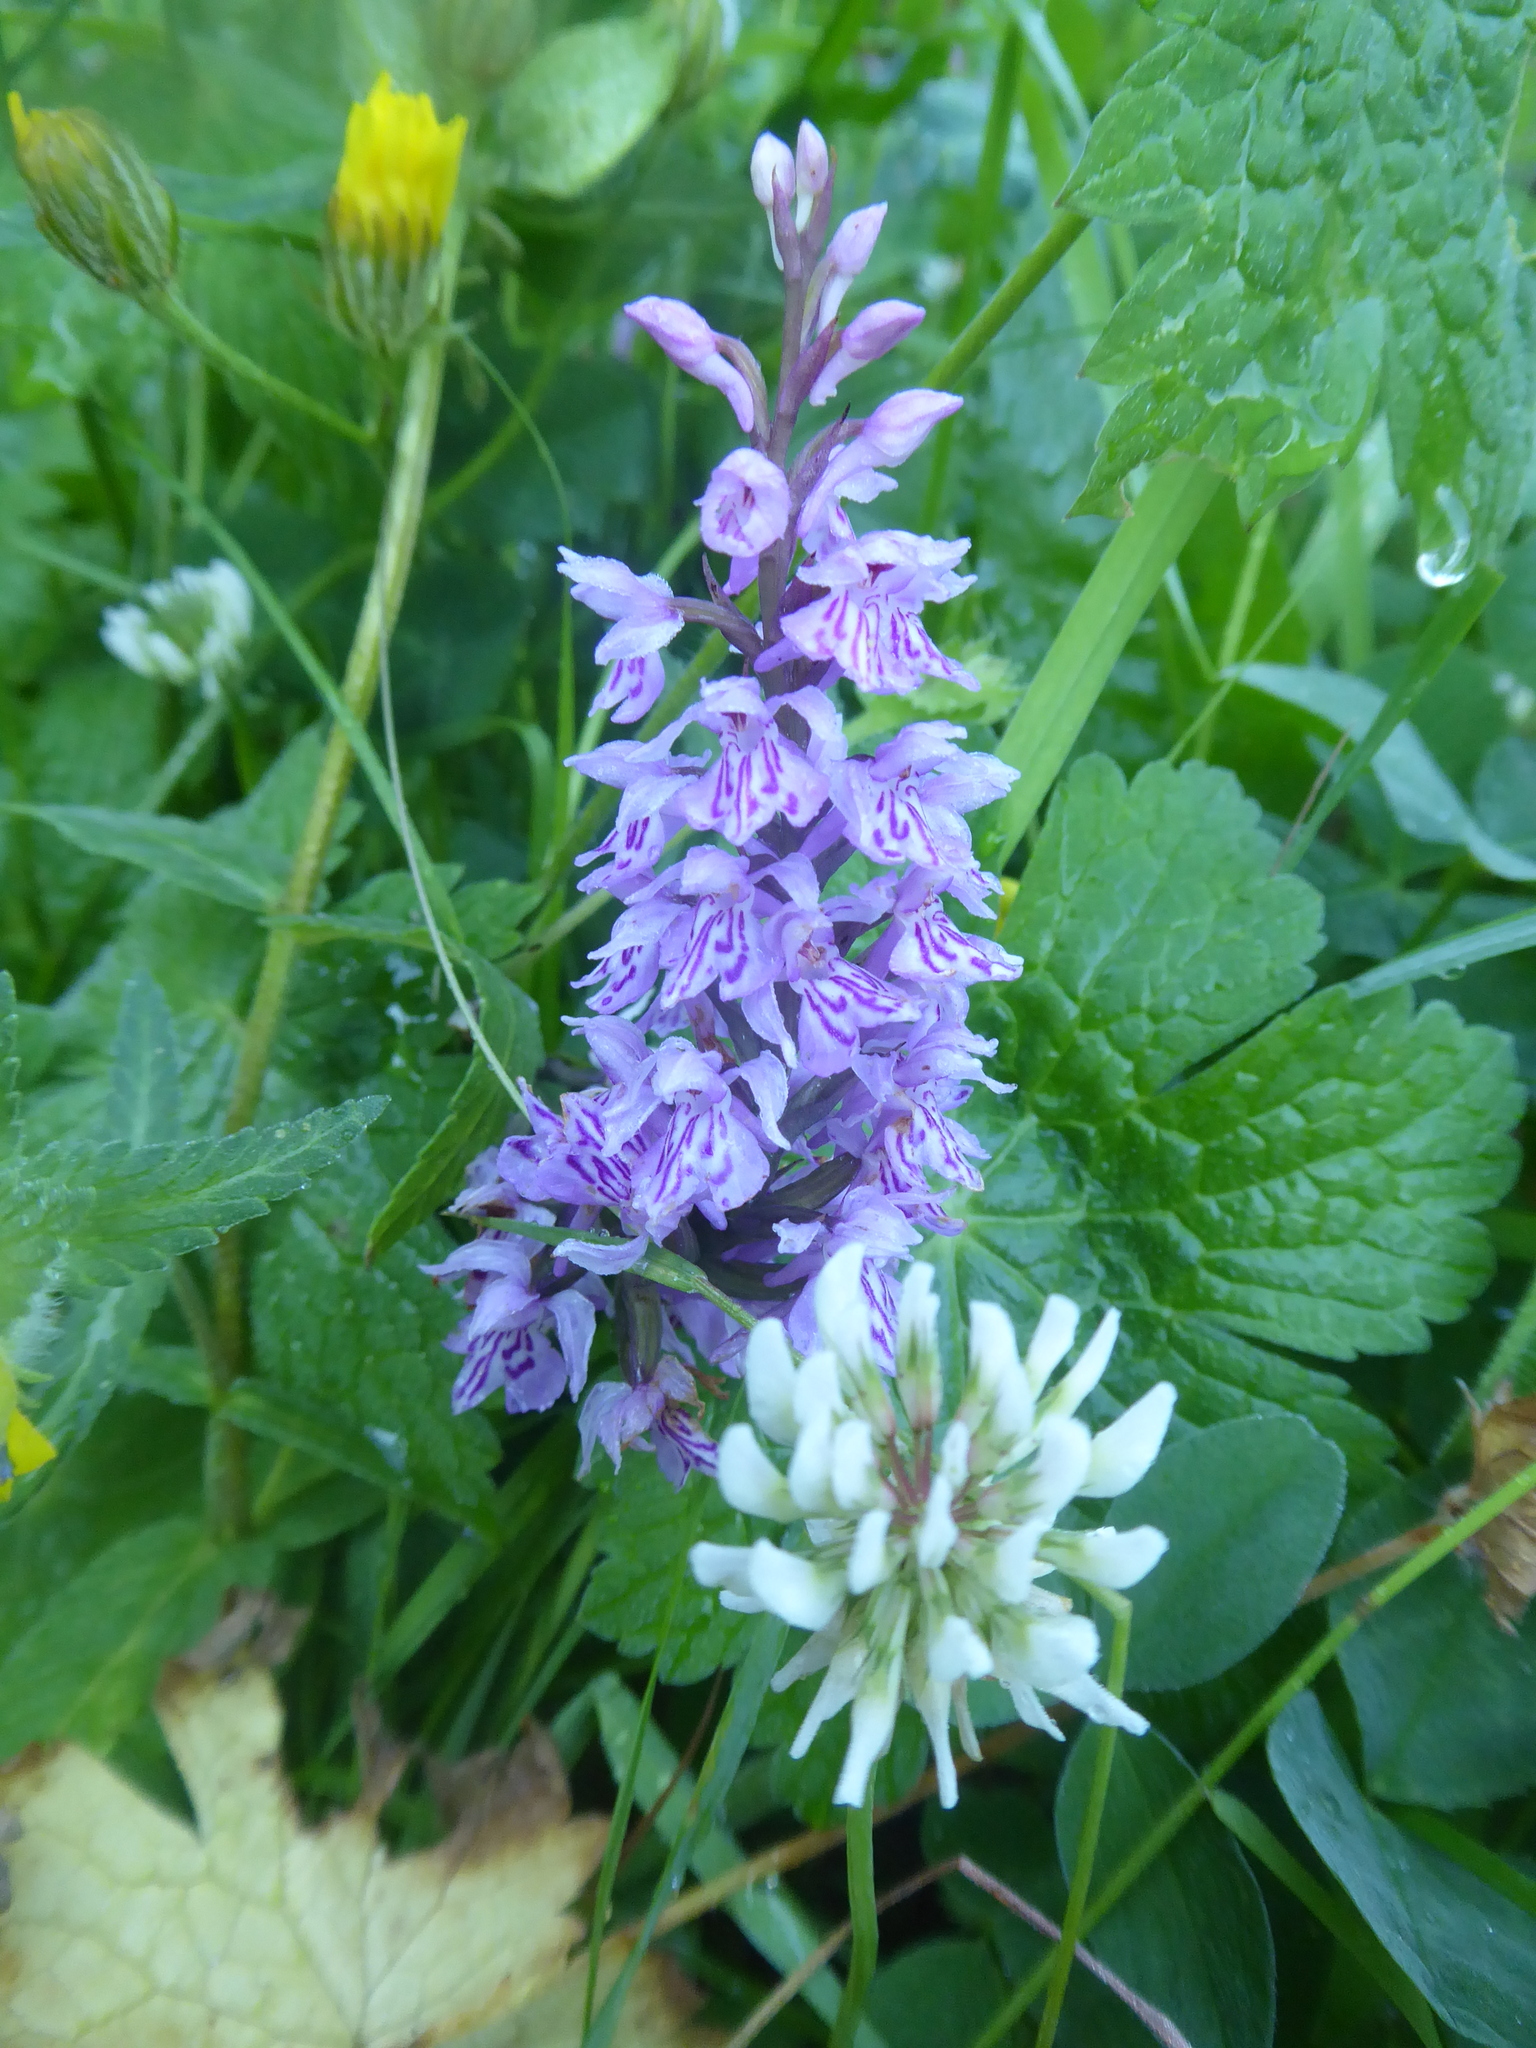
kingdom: Plantae
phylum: Tracheophyta
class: Liliopsida
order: Asparagales
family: Orchidaceae
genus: Dactylorhiza
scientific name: Dactylorhiza maculata
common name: Heath spotted-orchid
